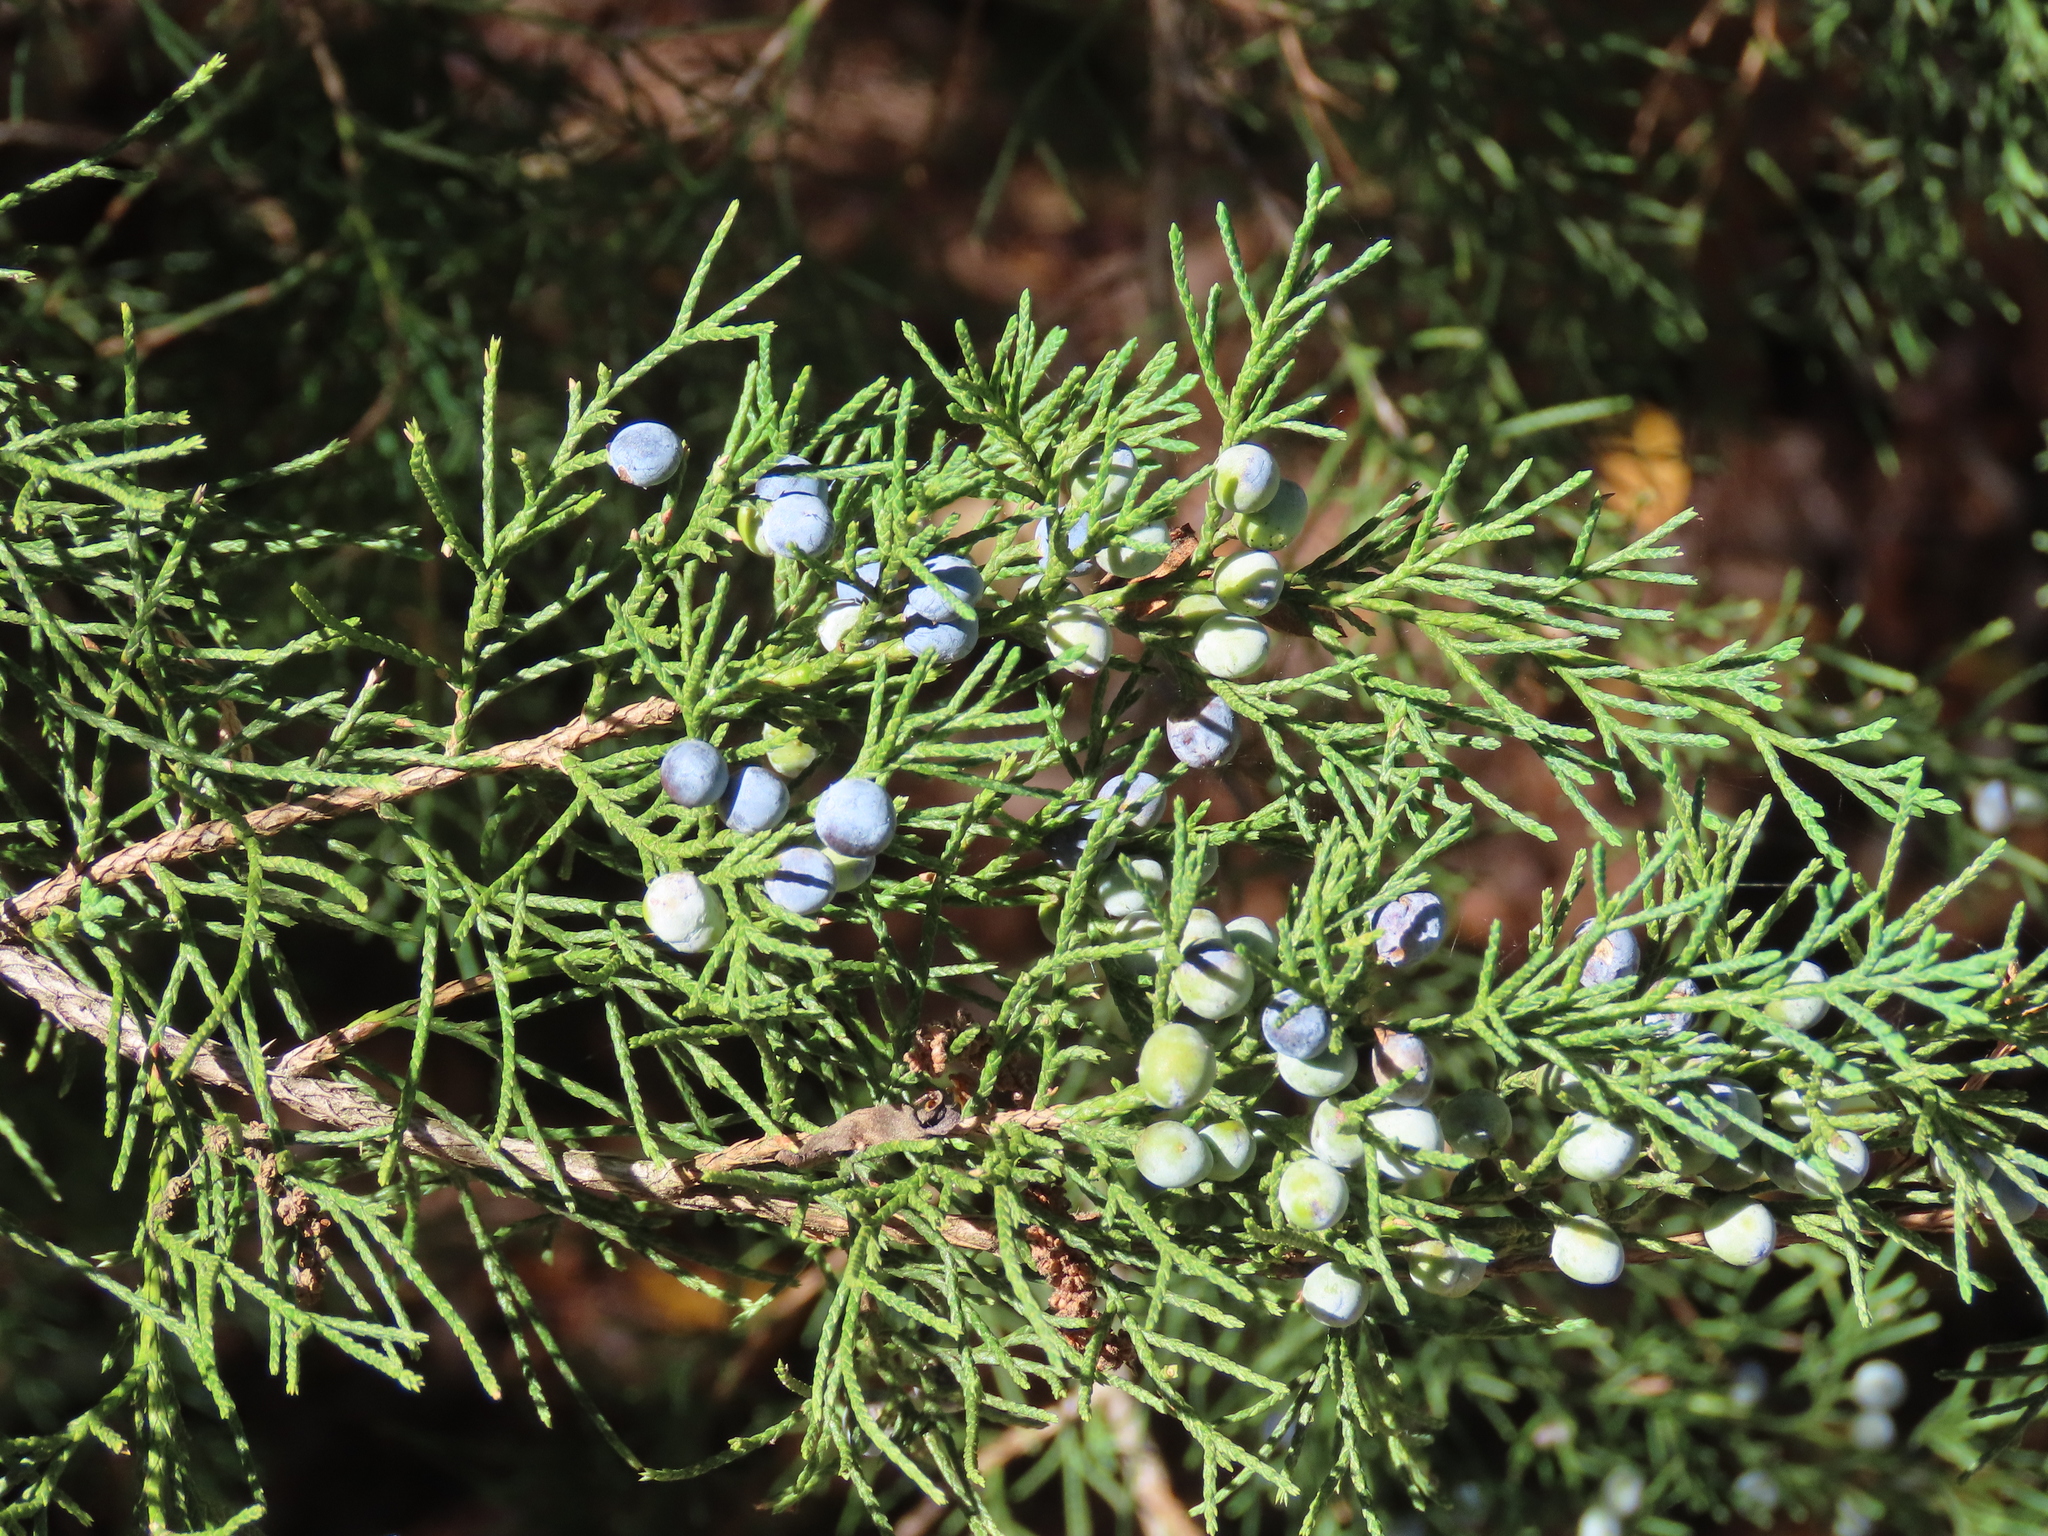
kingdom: Plantae
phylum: Tracheophyta
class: Pinopsida
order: Pinales
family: Cupressaceae
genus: Juniperus
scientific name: Juniperus virginiana
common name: Red juniper
